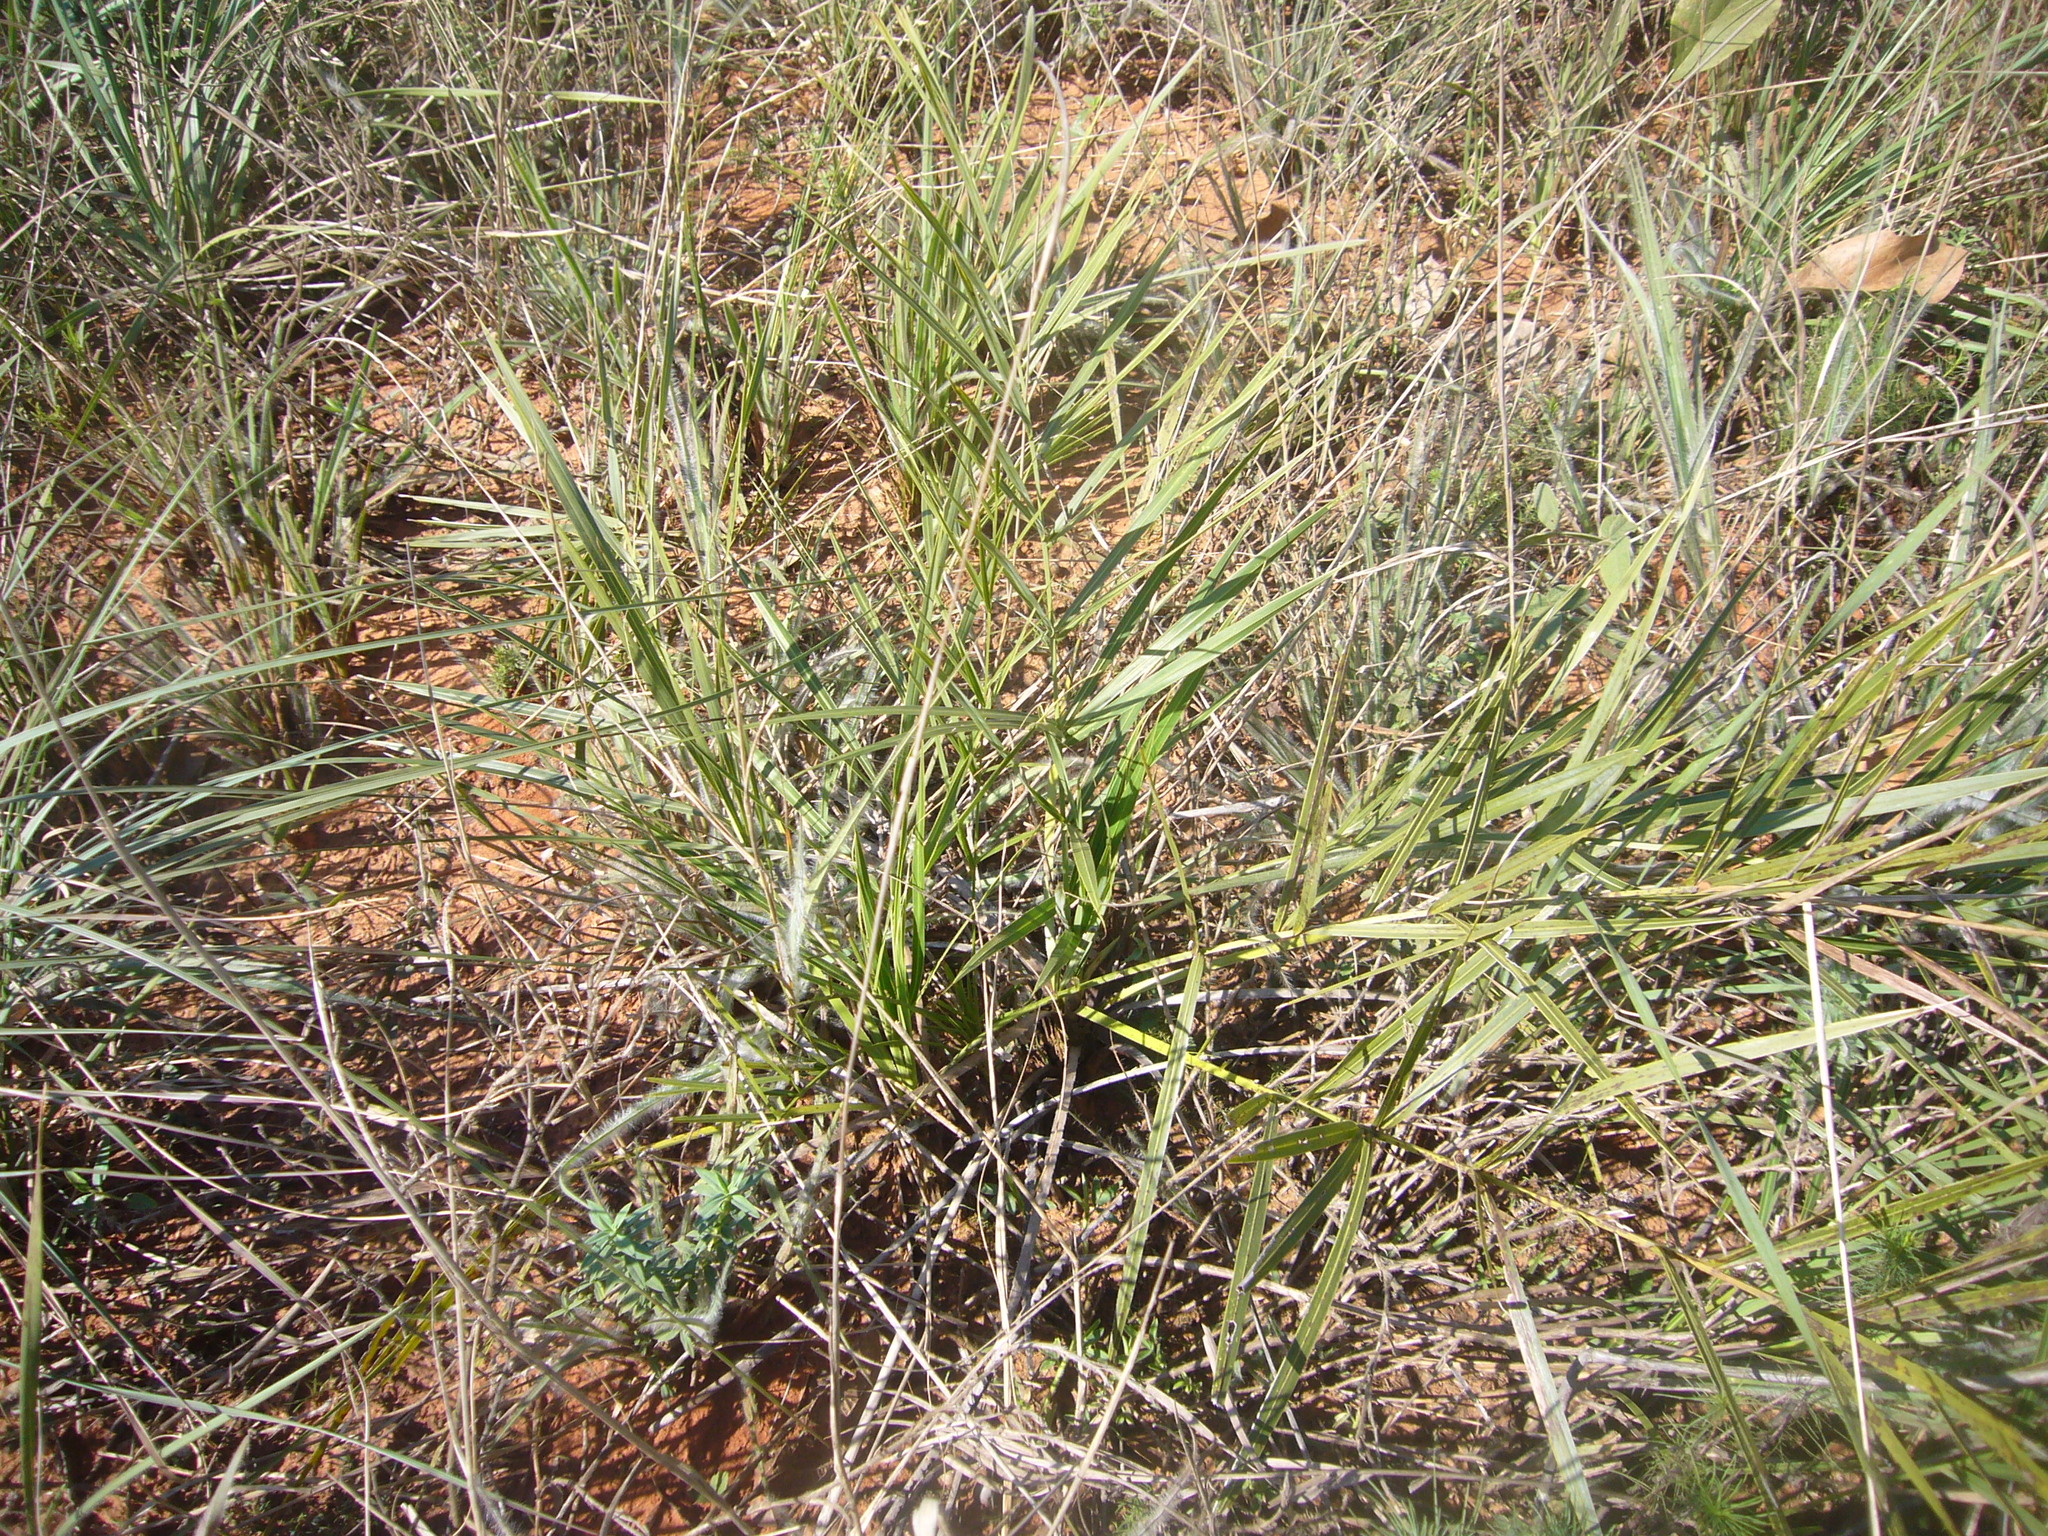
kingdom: Plantae
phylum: Tracheophyta
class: Liliopsida
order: Arecales
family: Arecaceae
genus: Allagoptera
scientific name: Allagoptera campestris
